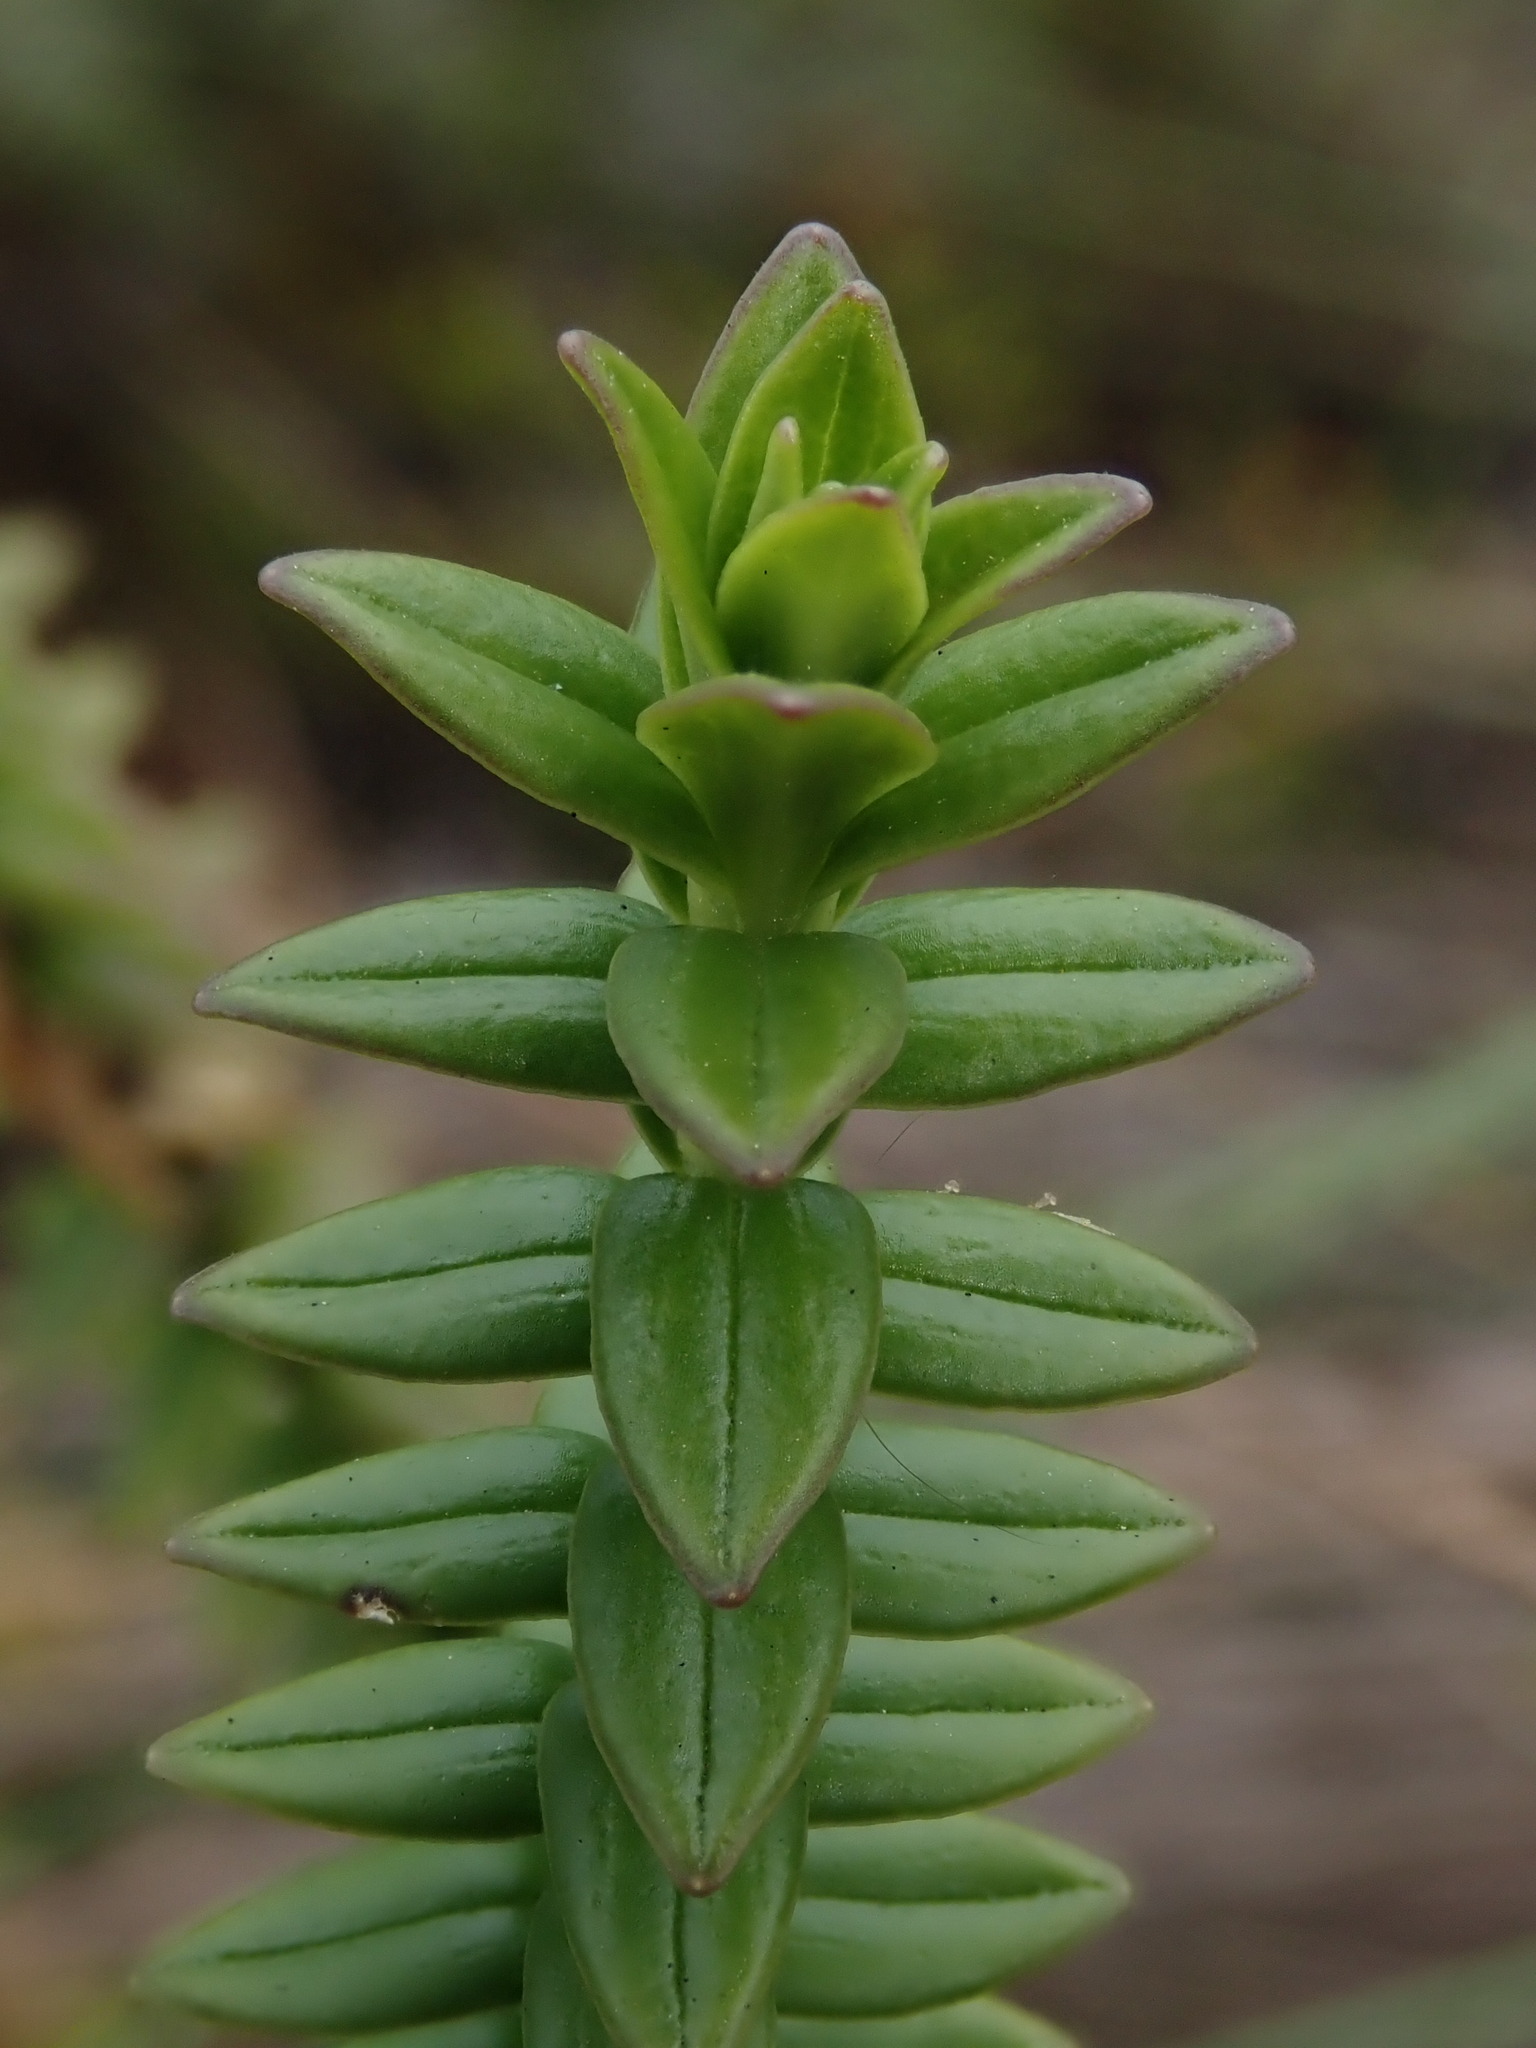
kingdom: Plantae
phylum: Tracheophyta
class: Magnoliopsida
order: Dipsacales
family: Caprifoliaceae
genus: Valeriana
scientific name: Valeriana microphylla
